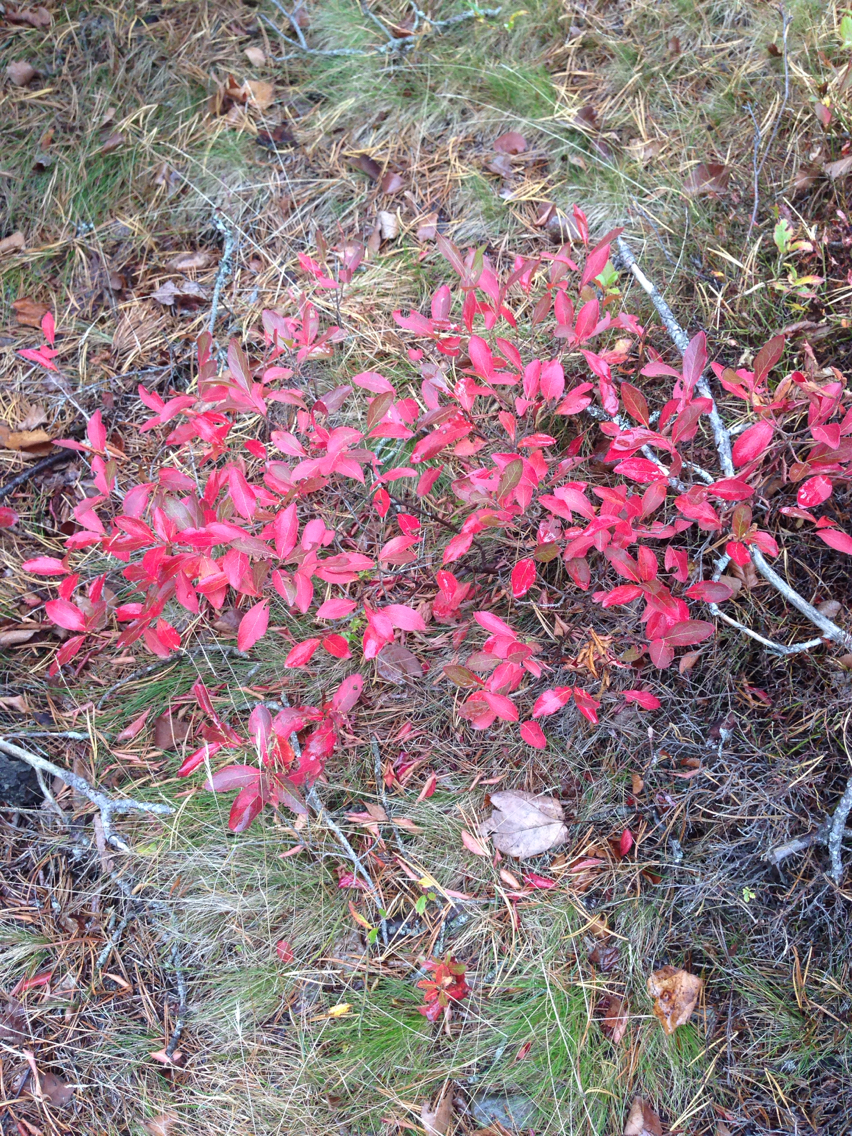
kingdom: Plantae
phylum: Tracheophyta
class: Magnoliopsida
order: Ericales
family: Ericaceae
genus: Gaylussacia
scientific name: Gaylussacia baccata
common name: Black huckleberry
